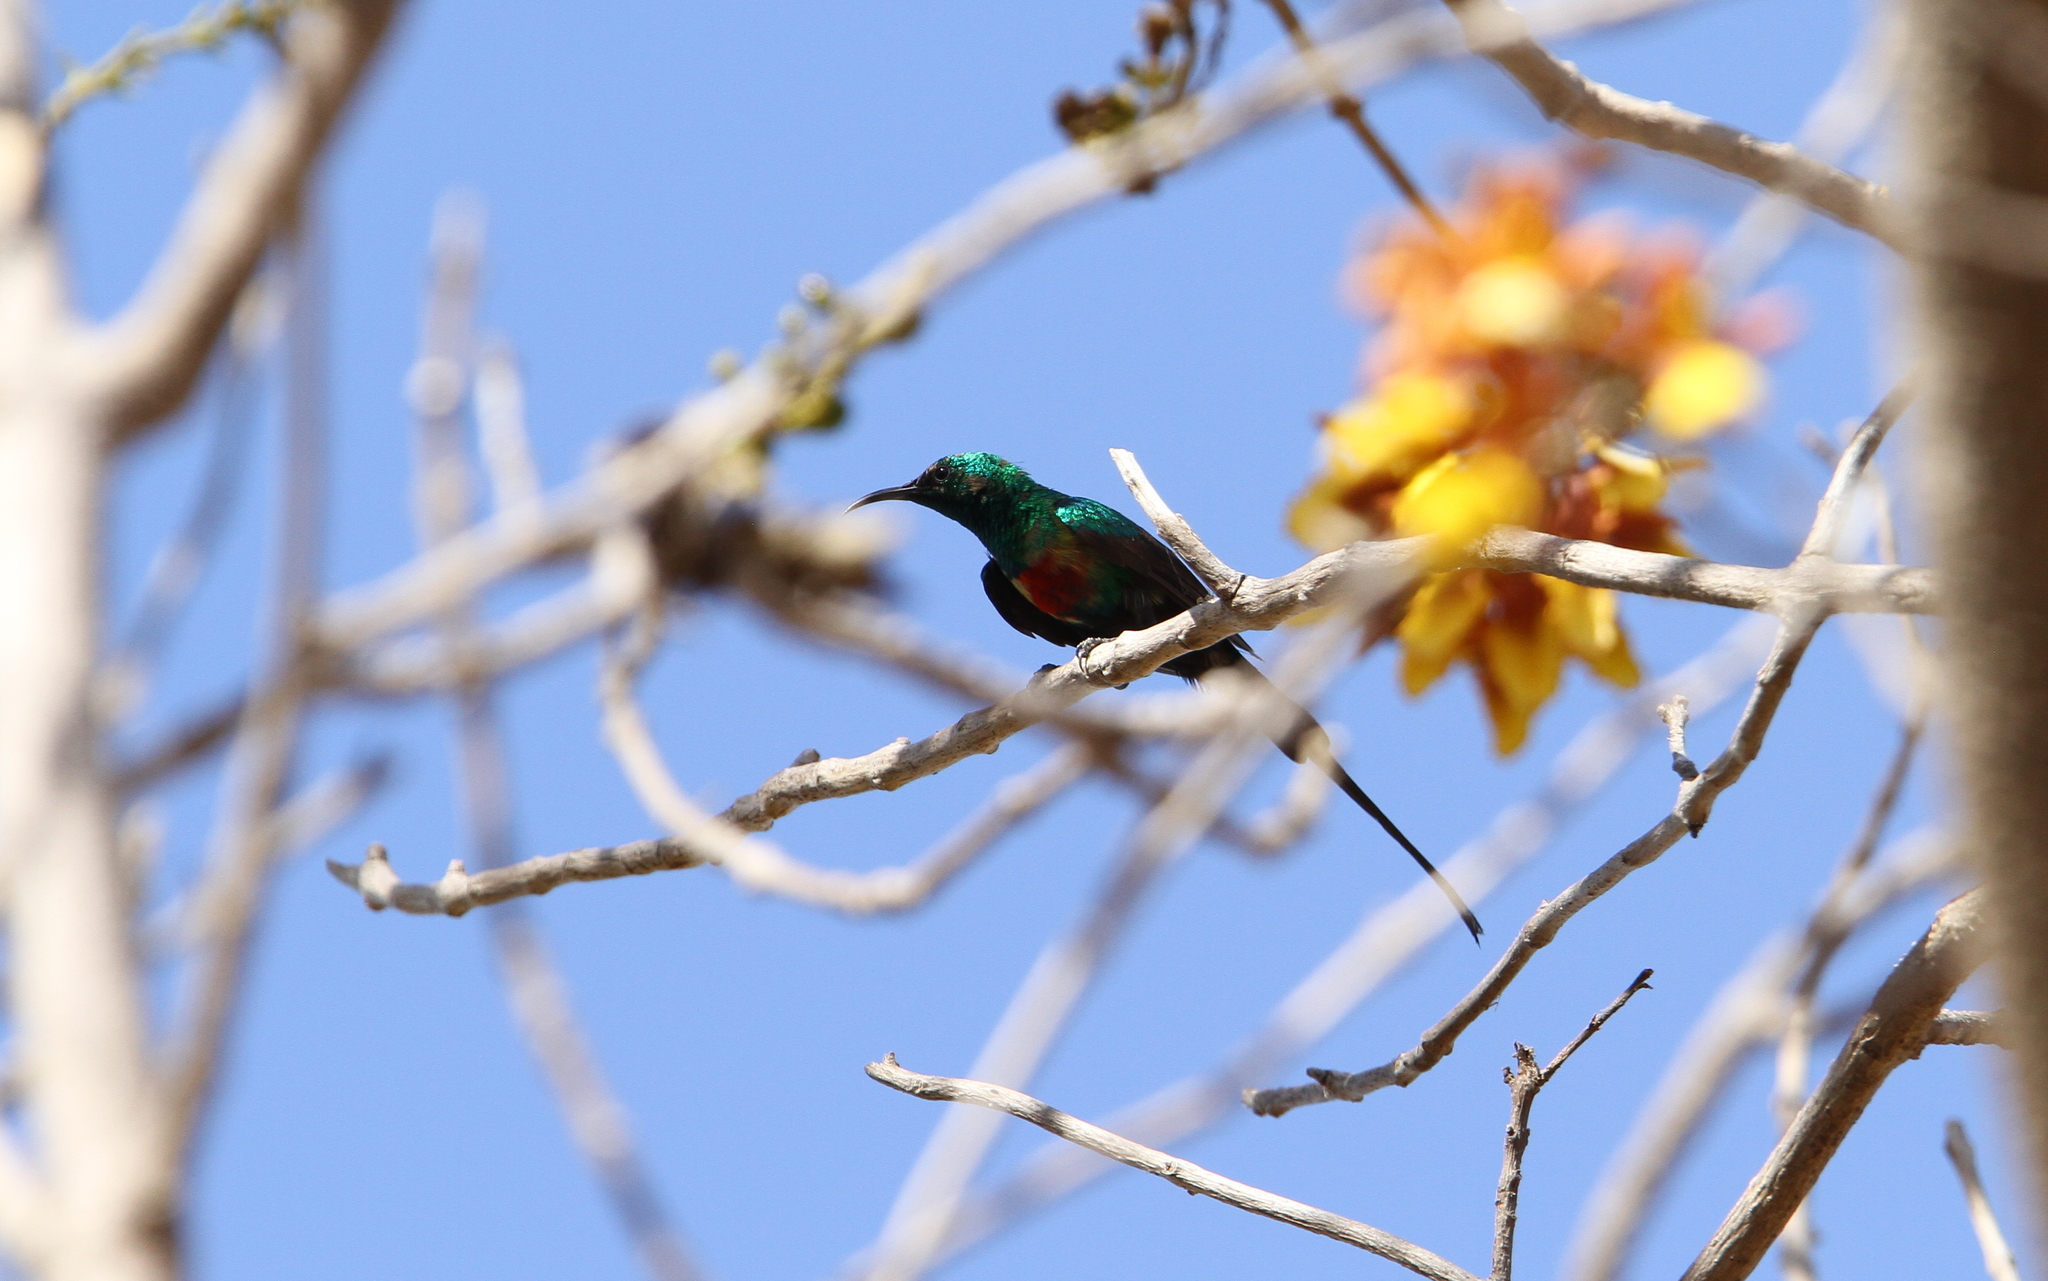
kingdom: Animalia
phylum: Chordata
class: Aves
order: Passeriformes
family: Nectariniidae
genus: Cinnyris
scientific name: Cinnyris pulchellus
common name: Beautiful sunbird
